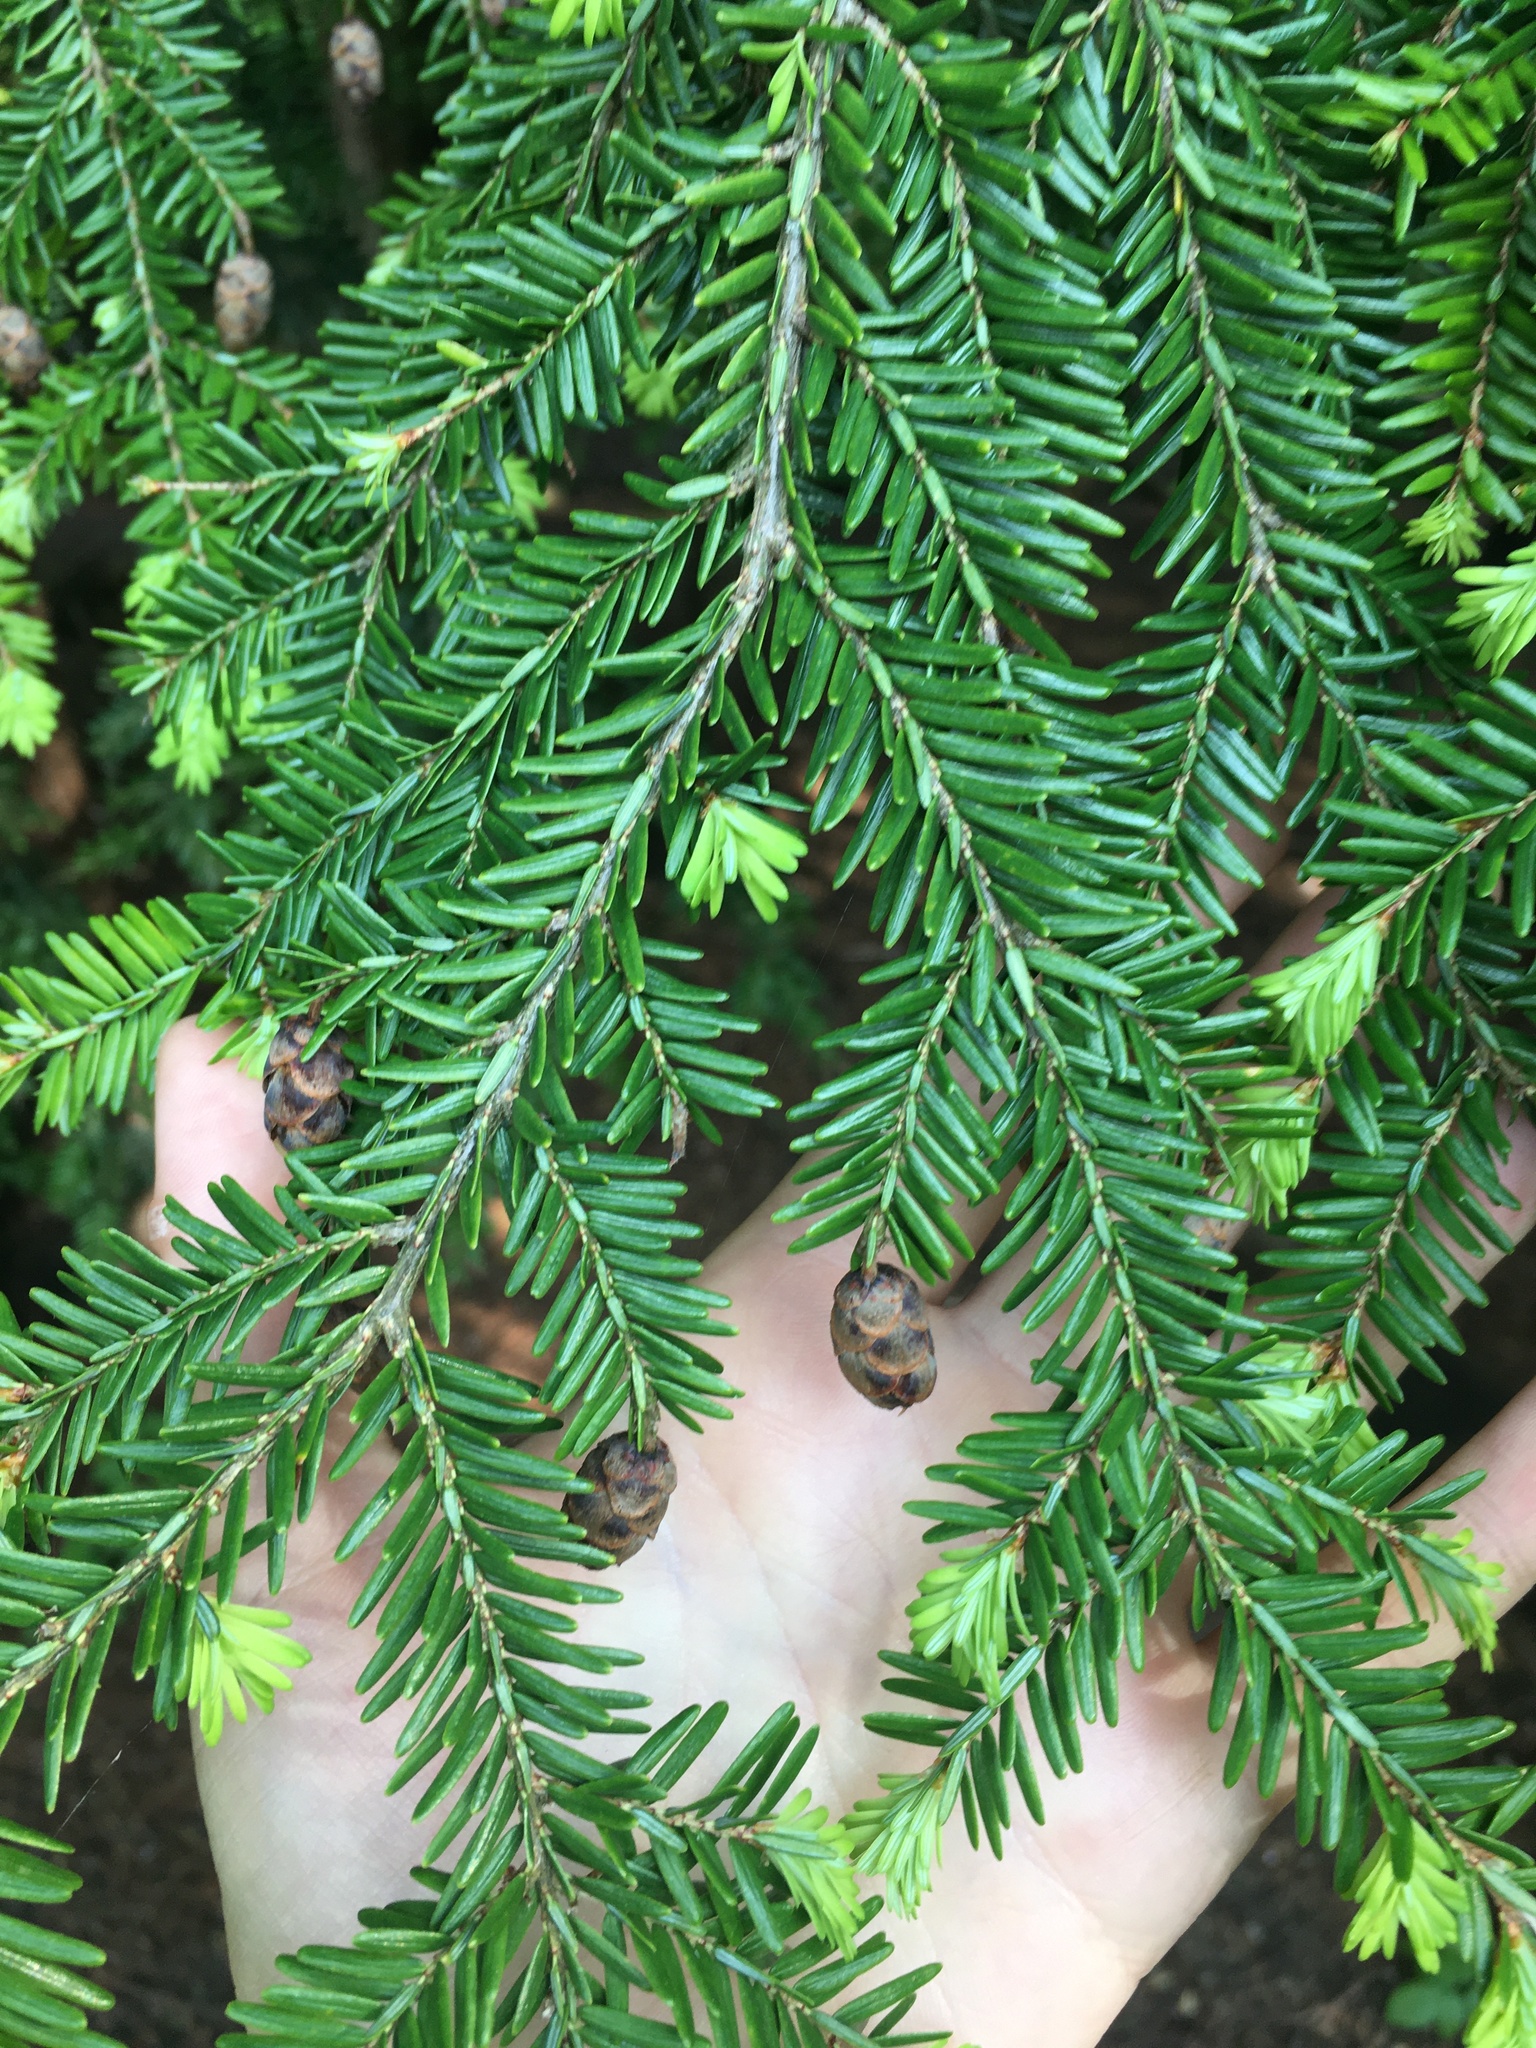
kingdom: Plantae
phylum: Tracheophyta
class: Pinopsida
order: Pinales
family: Pinaceae
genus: Tsuga
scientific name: Tsuga canadensis
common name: Eastern hemlock
